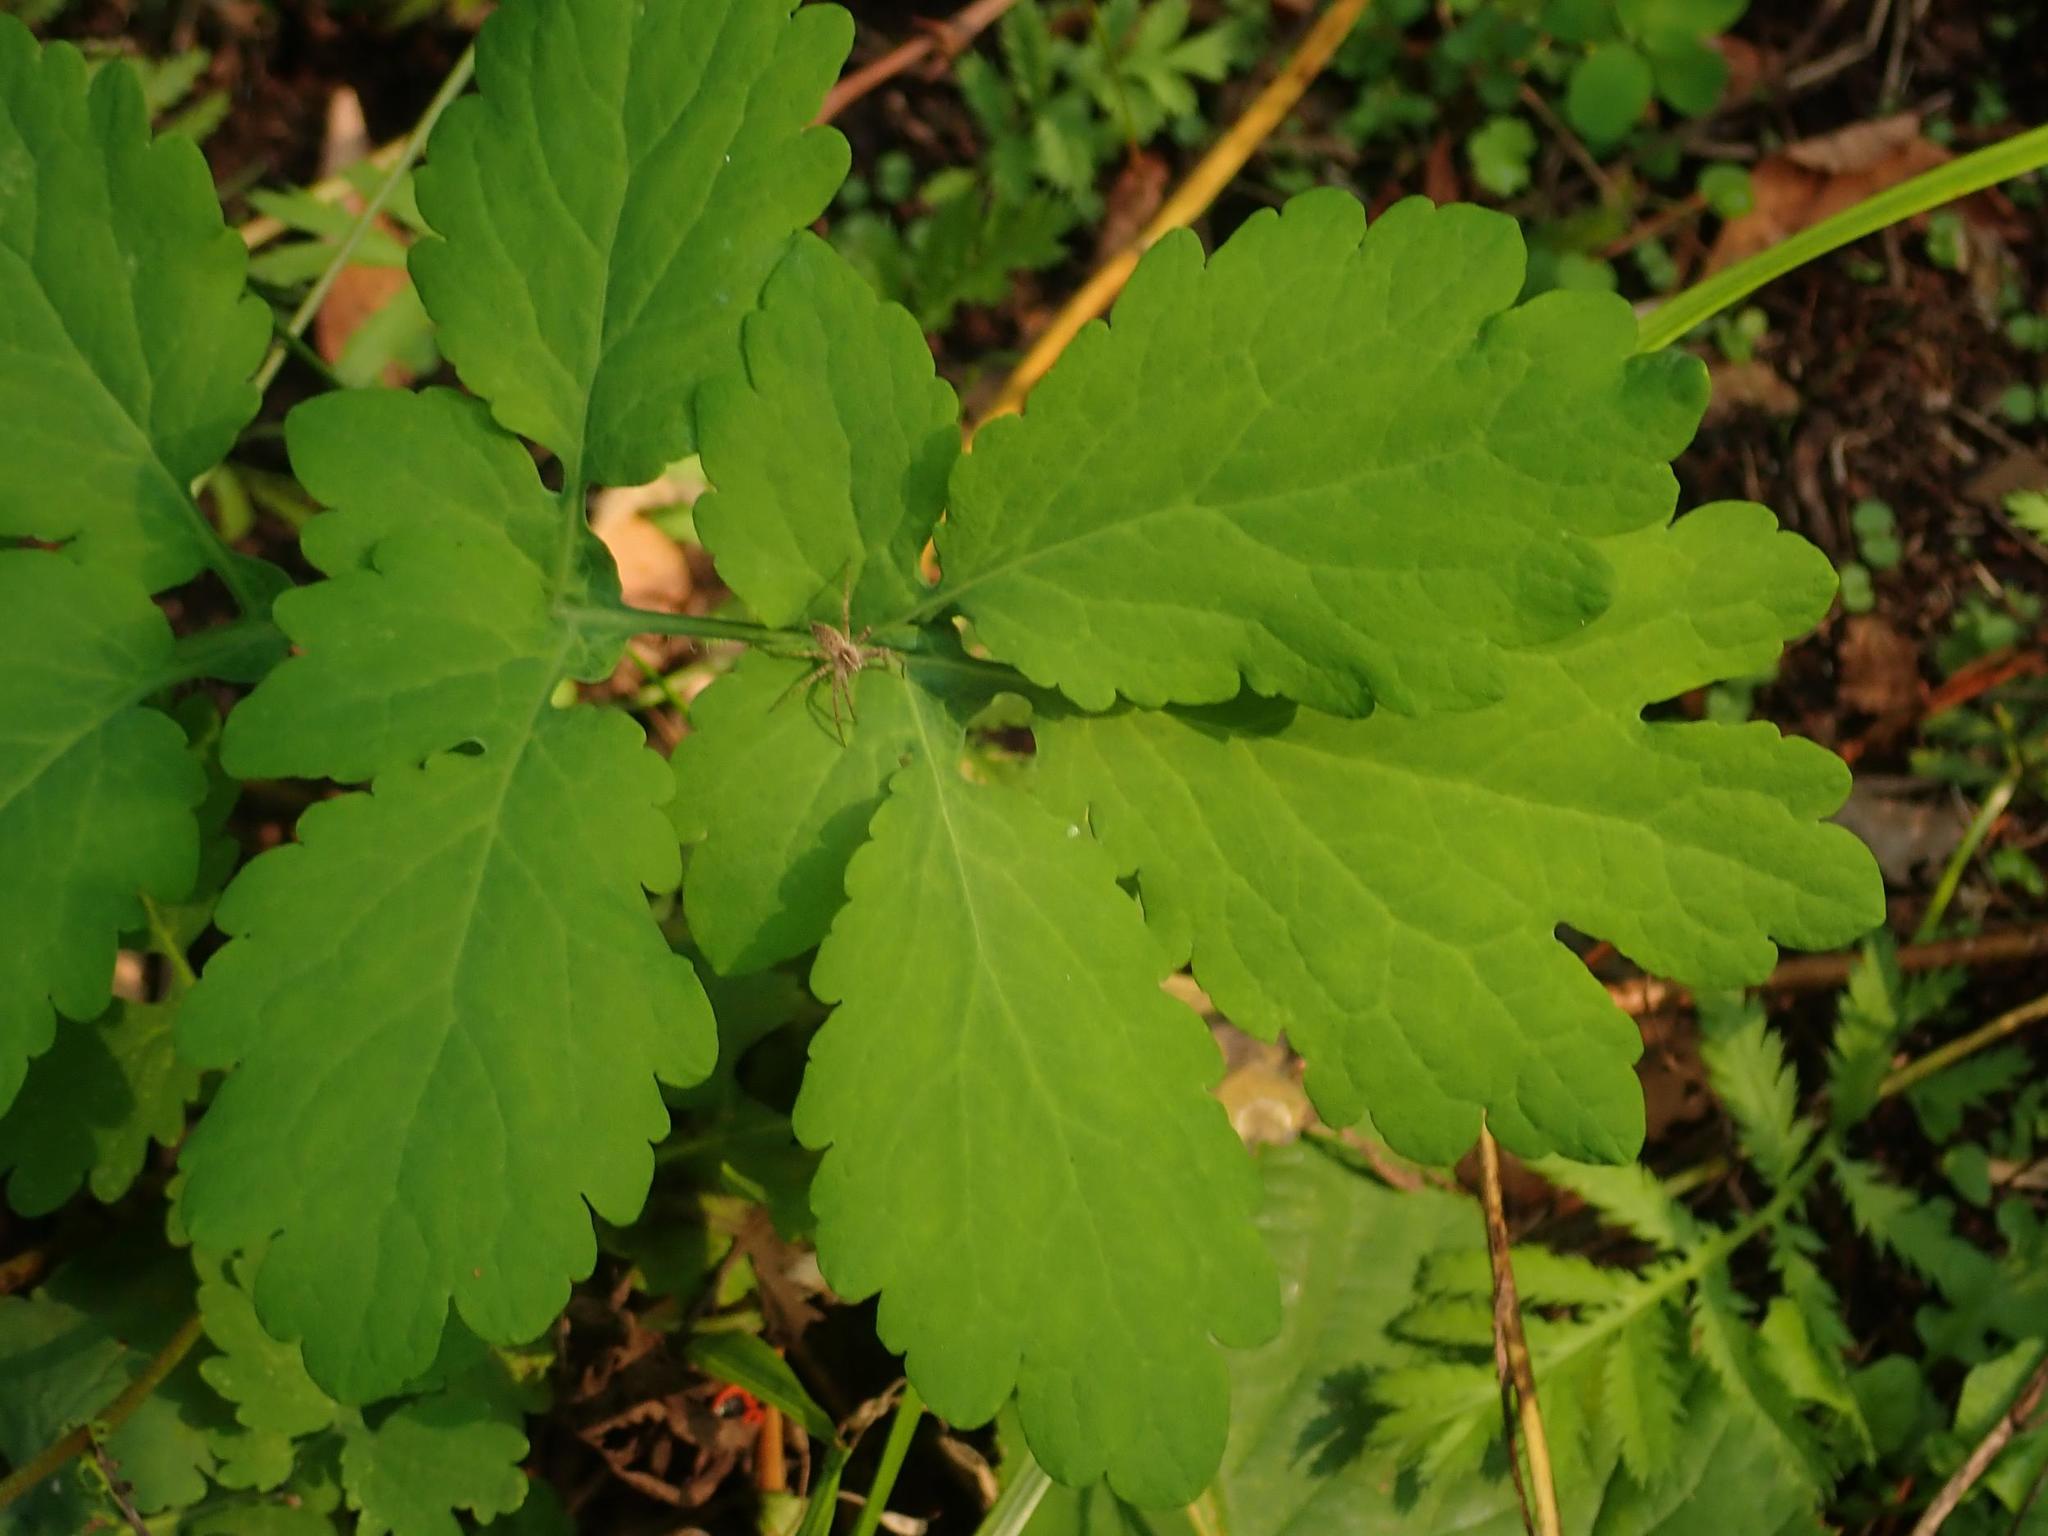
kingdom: Plantae
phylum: Tracheophyta
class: Magnoliopsida
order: Ranunculales
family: Papaveraceae
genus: Chelidonium
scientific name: Chelidonium majus
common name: Greater celandine
